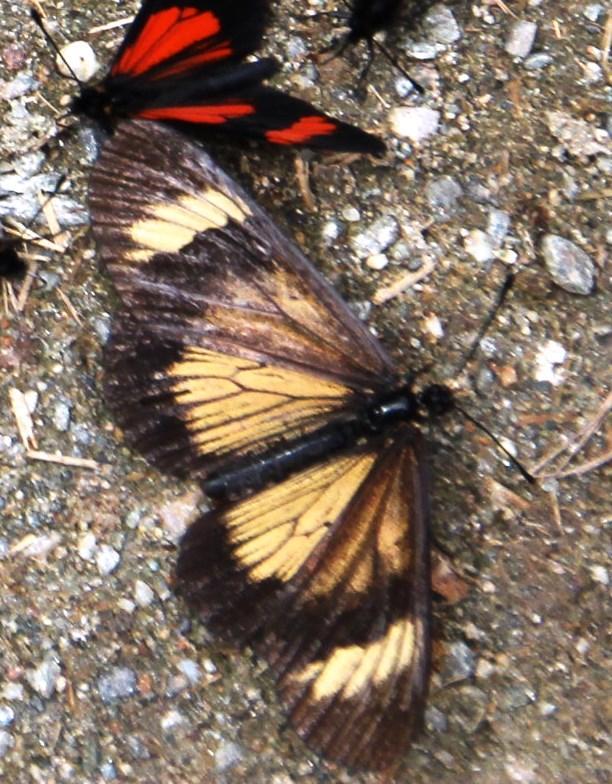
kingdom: Animalia
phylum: Arthropoda
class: Insecta
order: Lepidoptera
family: Nymphalidae
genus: Actinote
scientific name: Actinote pellenea
